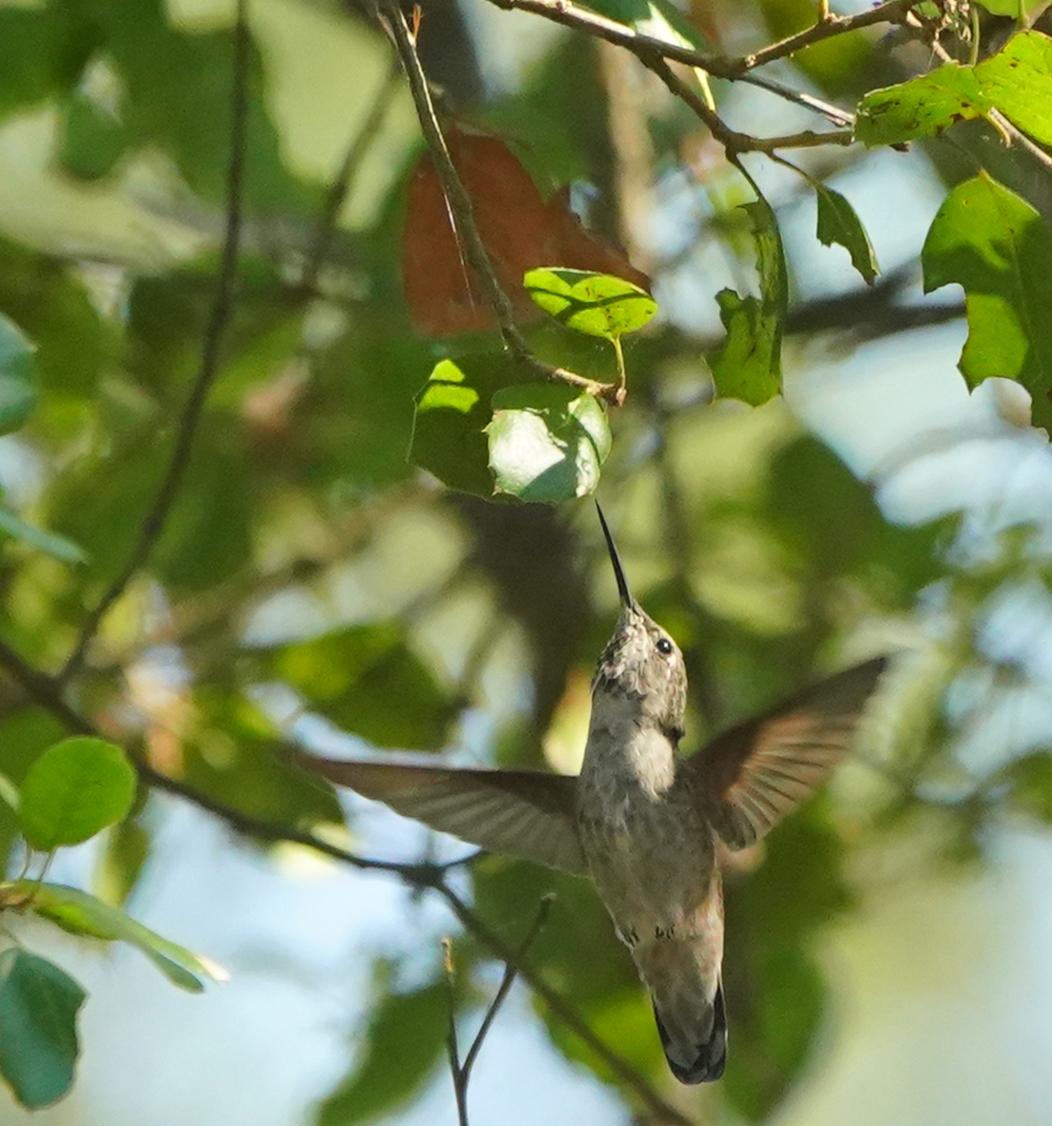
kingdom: Animalia
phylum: Chordata
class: Aves
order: Apodiformes
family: Trochilidae
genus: Calypte
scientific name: Calypte anna
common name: Anna's hummingbird
